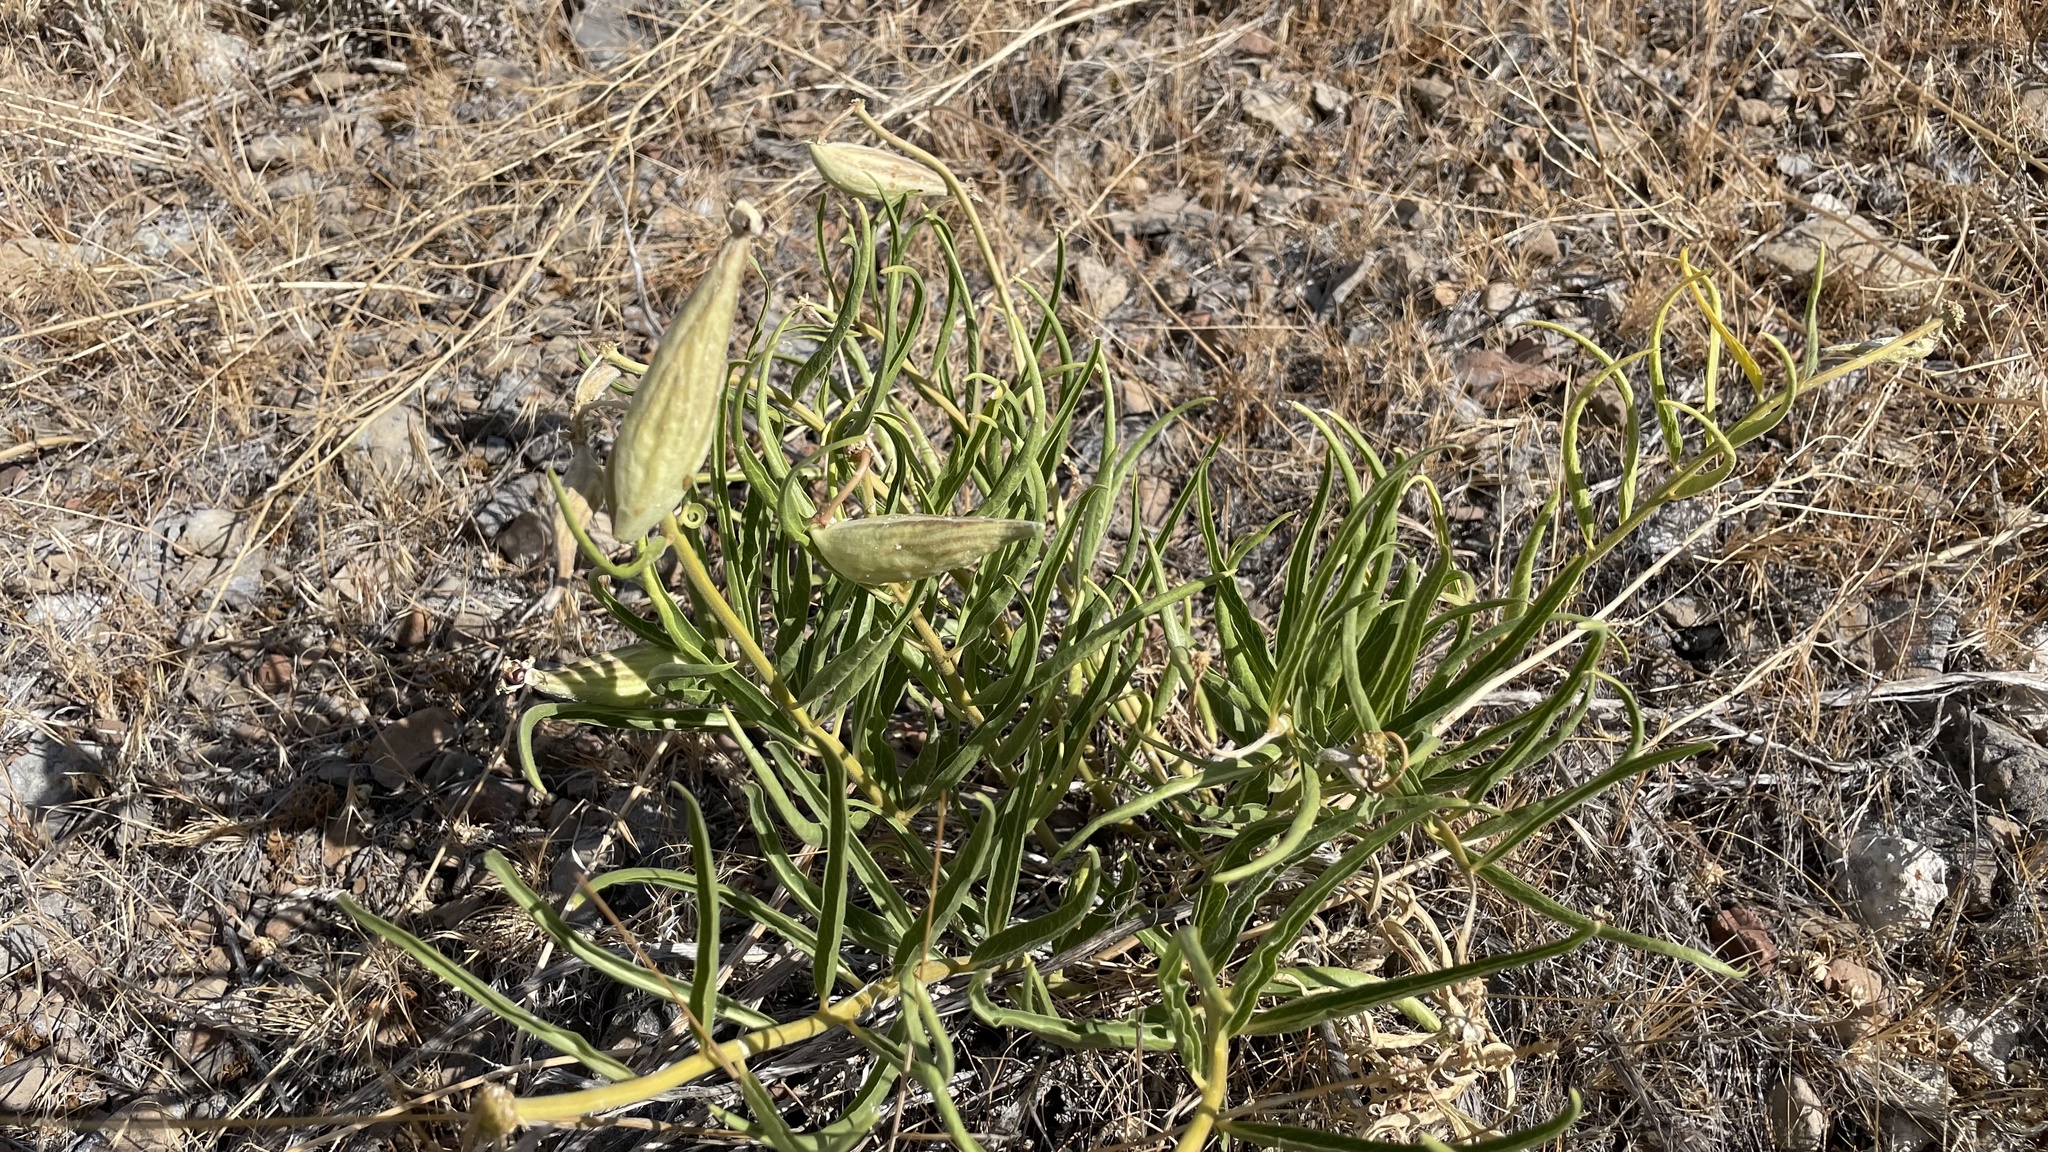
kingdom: Plantae
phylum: Tracheophyta
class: Magnoliopsida
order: Gentianales
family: Apocynaceae
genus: Asclepias
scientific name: Asclepias asperula
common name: Antelope horns
